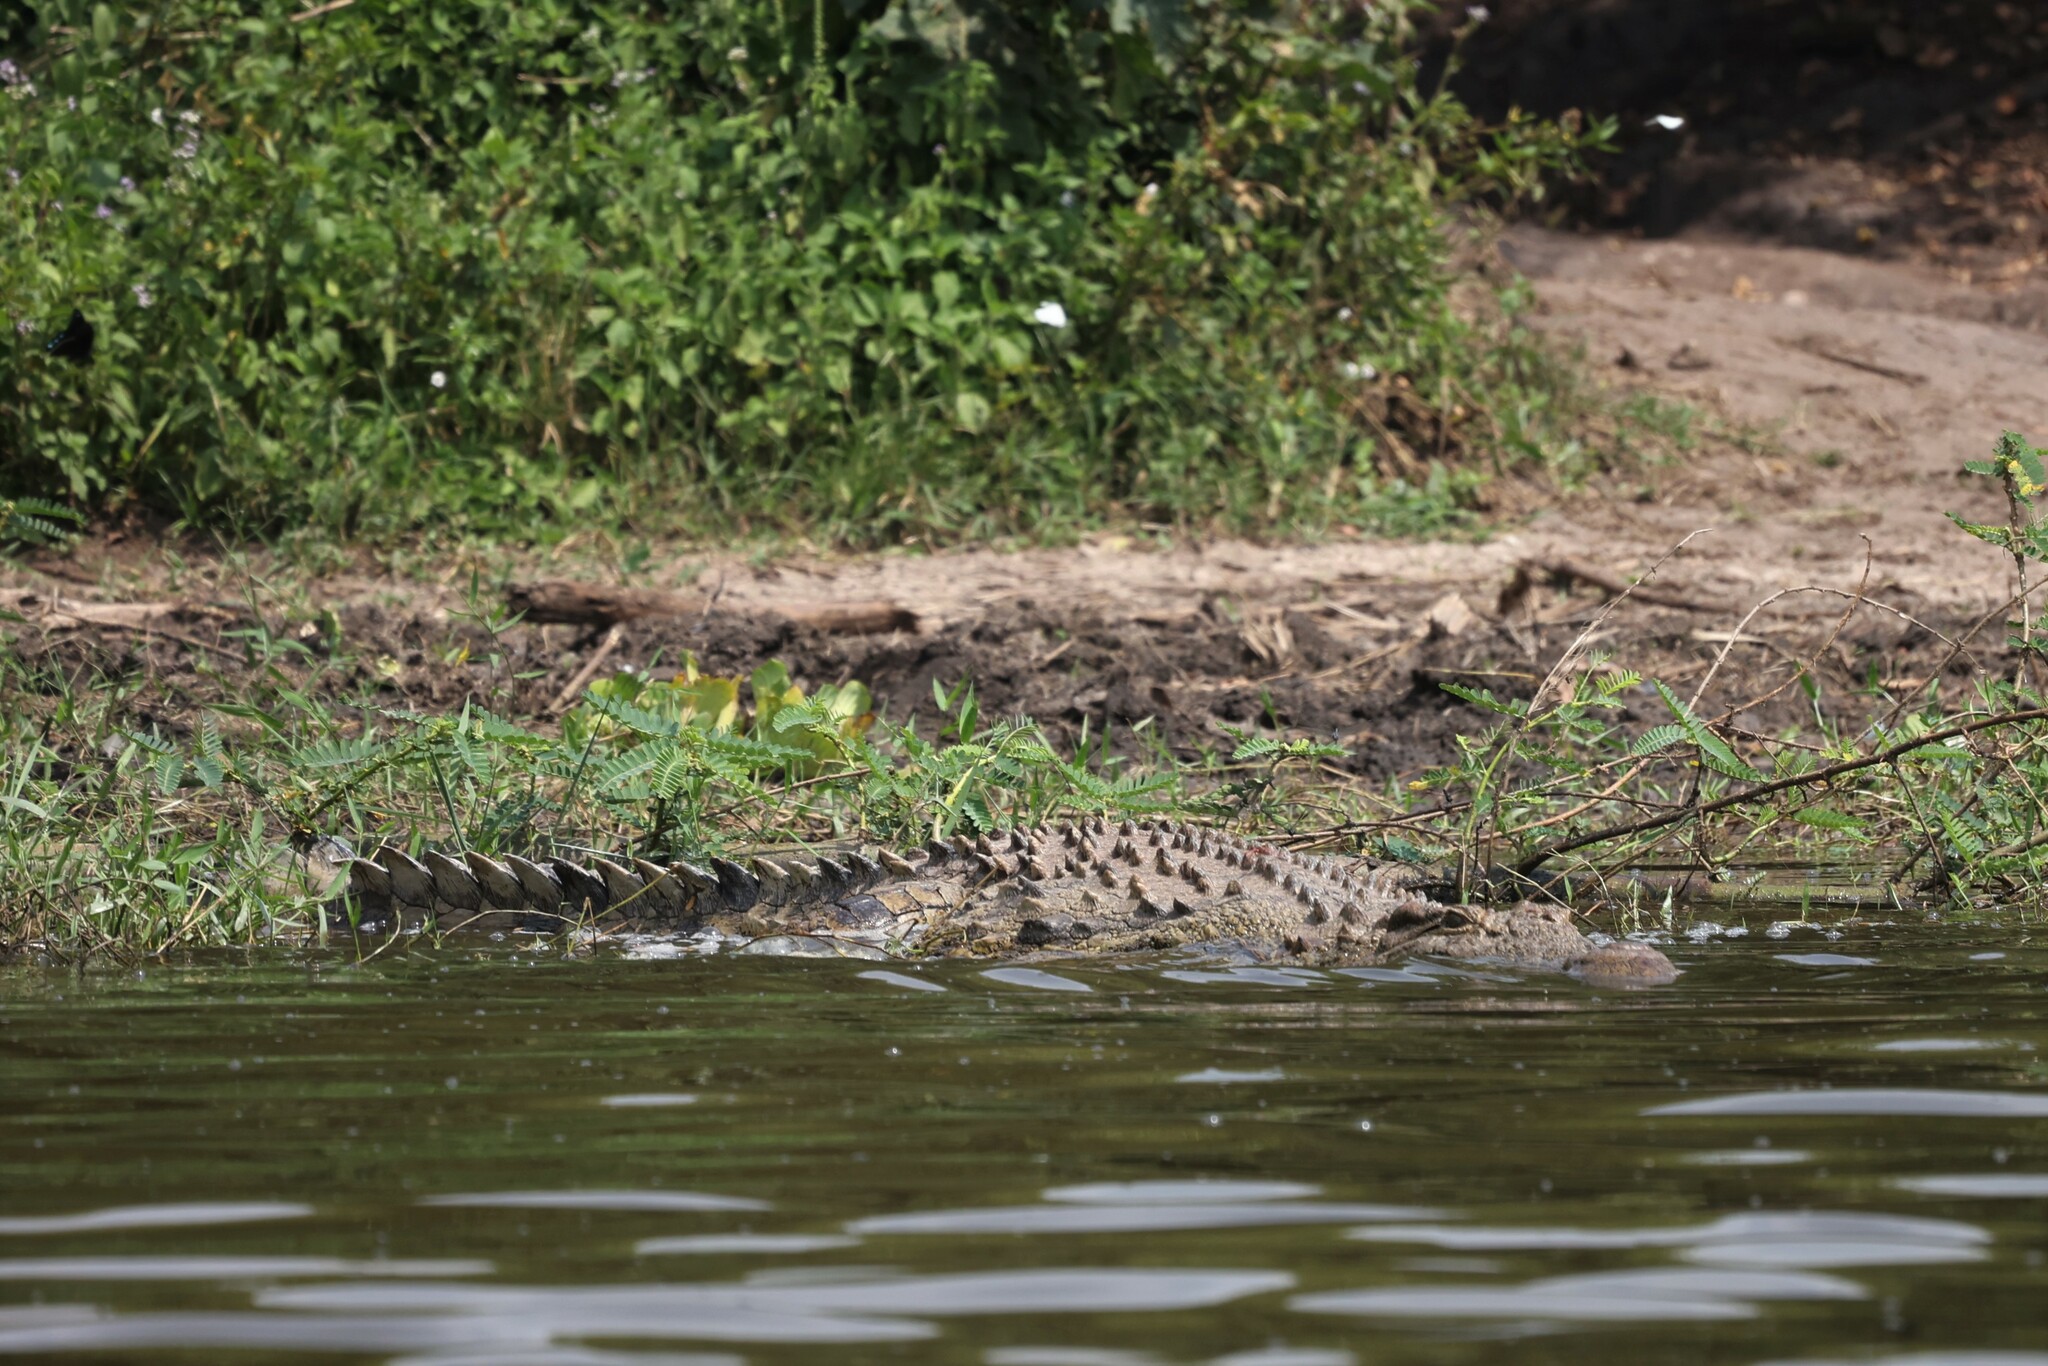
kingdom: Animalia
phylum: Chordata
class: Crocodylia
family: Crocodylidae
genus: Crocodylus
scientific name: Crocodylus niloticus
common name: Nile crocodile
